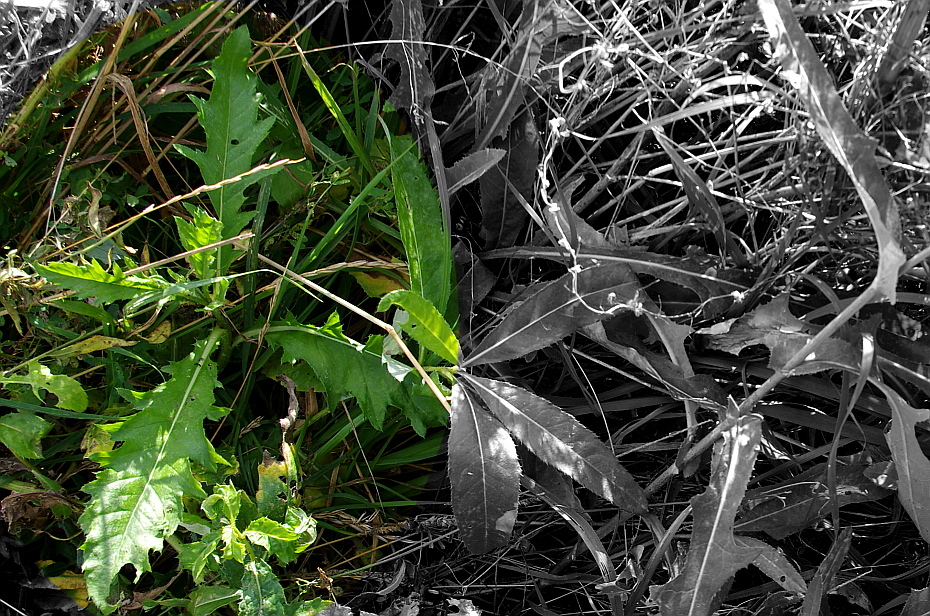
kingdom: Plantae
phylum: Tracheophyta
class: Magnoliopsida
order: Asterales
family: Asteraceae
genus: Cirsium
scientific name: Cirsium arvense
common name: Creeping thistle
